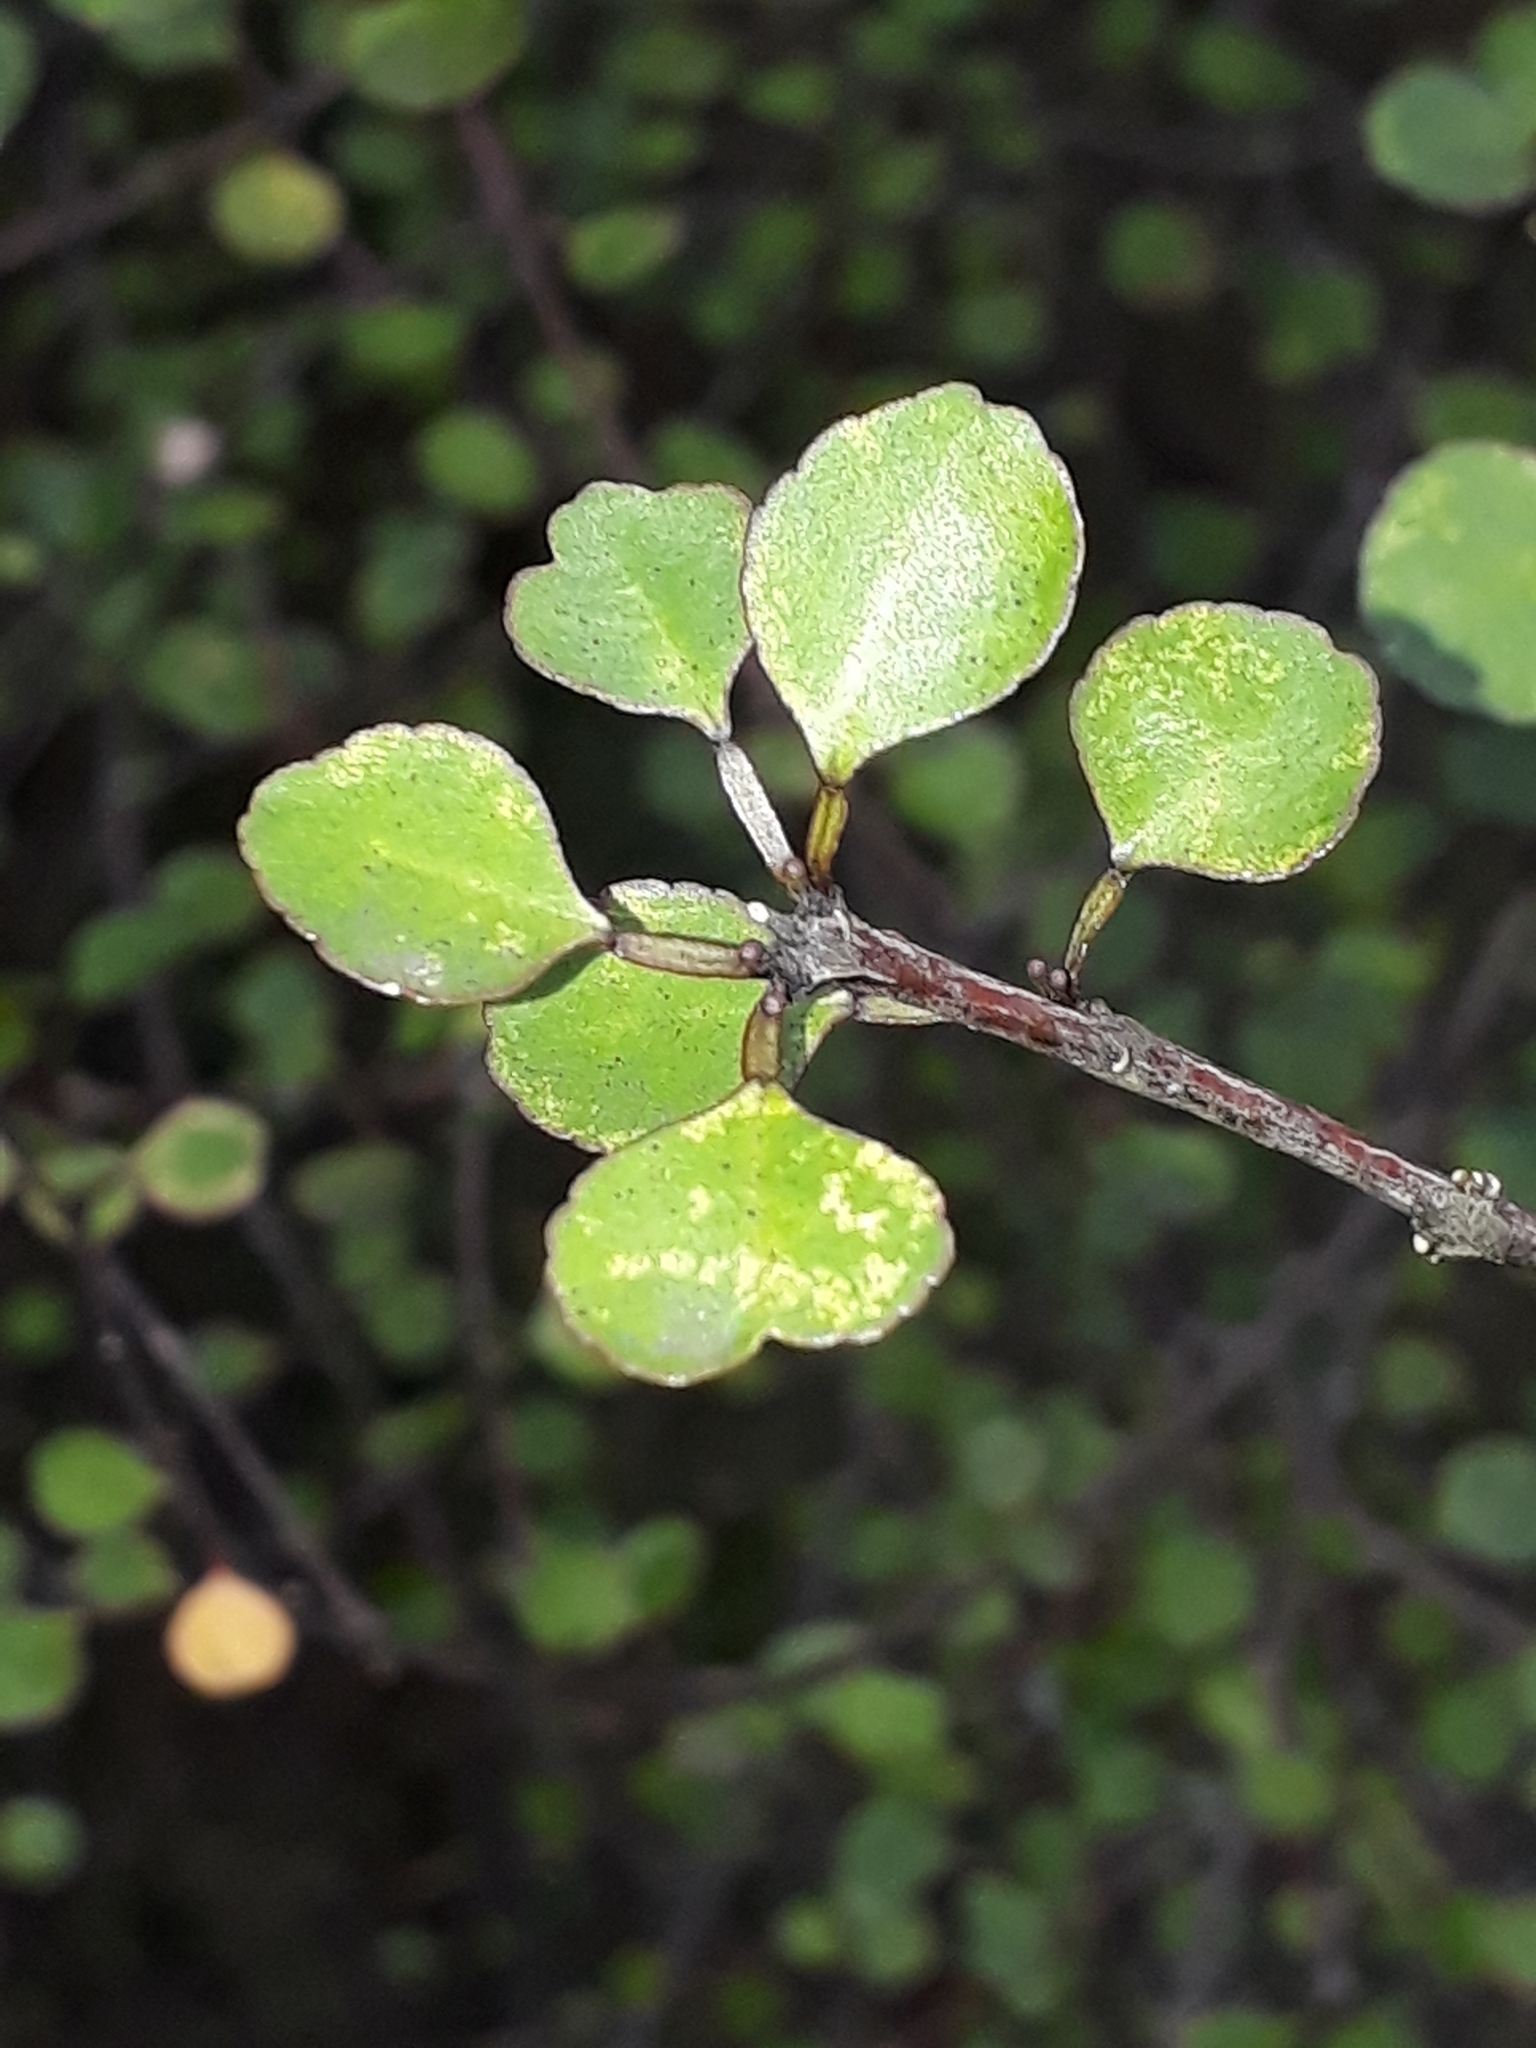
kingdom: Plantae
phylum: Tracheophyta
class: Magnoliopsida
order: Sapindales
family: Rutaceae
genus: Melicope
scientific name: Melicope simplex
